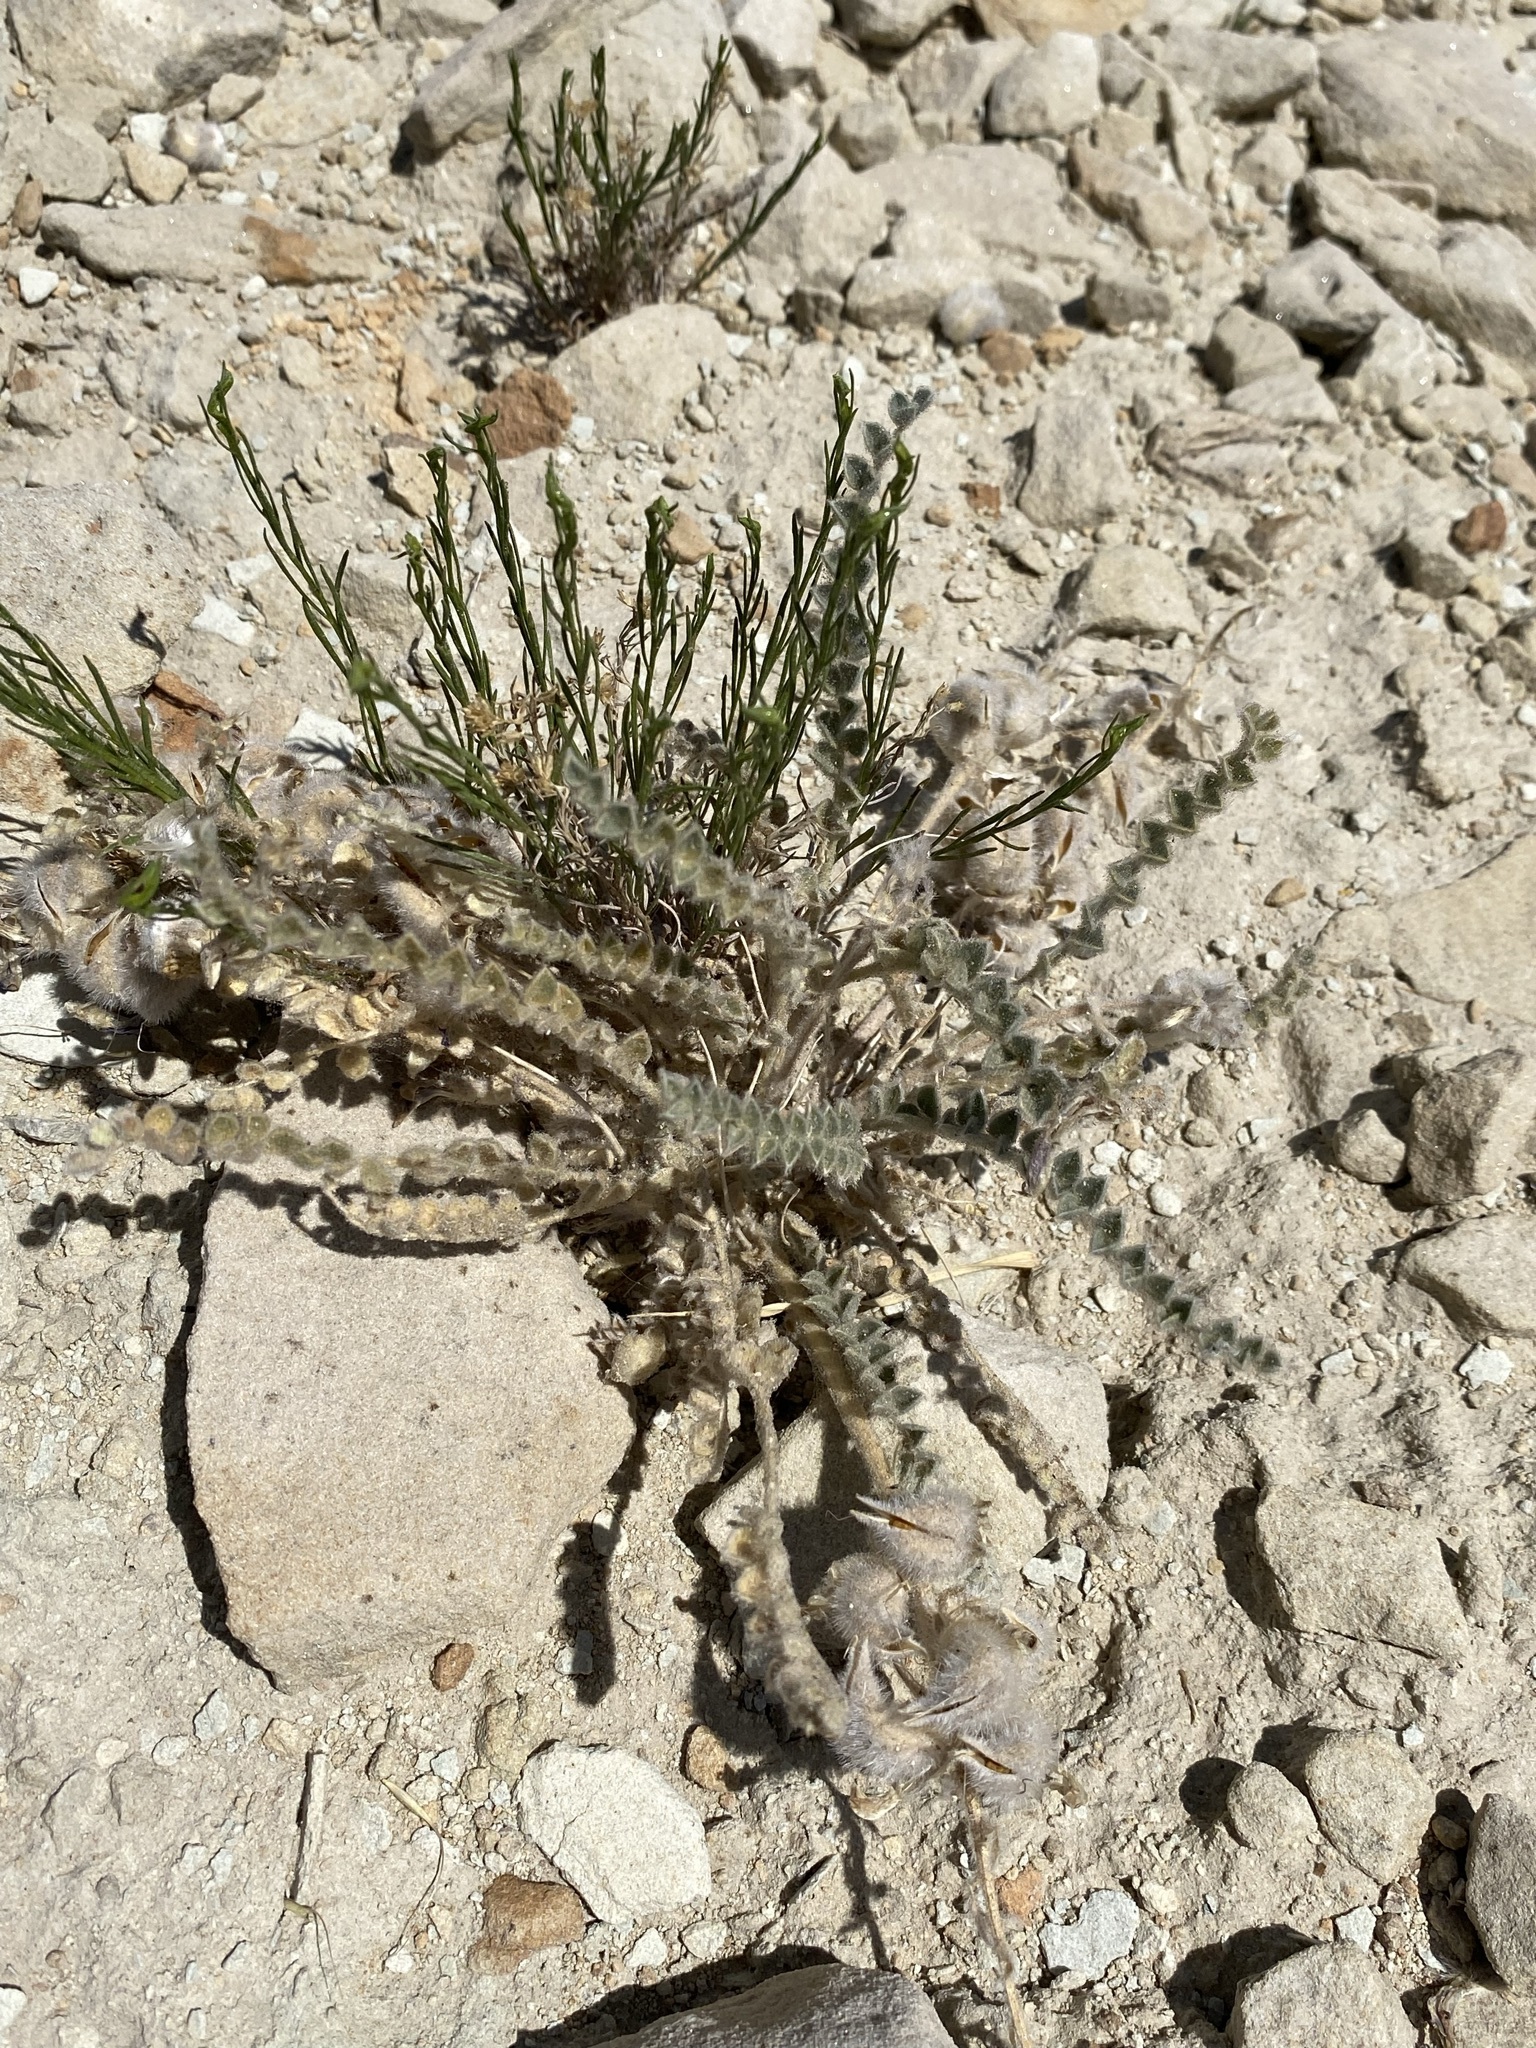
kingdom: Plantae
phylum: Tracheophyta
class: Magnoliopsida
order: Fabales
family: Fabaceae
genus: Astragalus
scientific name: Astragalus mollissimus
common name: Woolly locoweed
